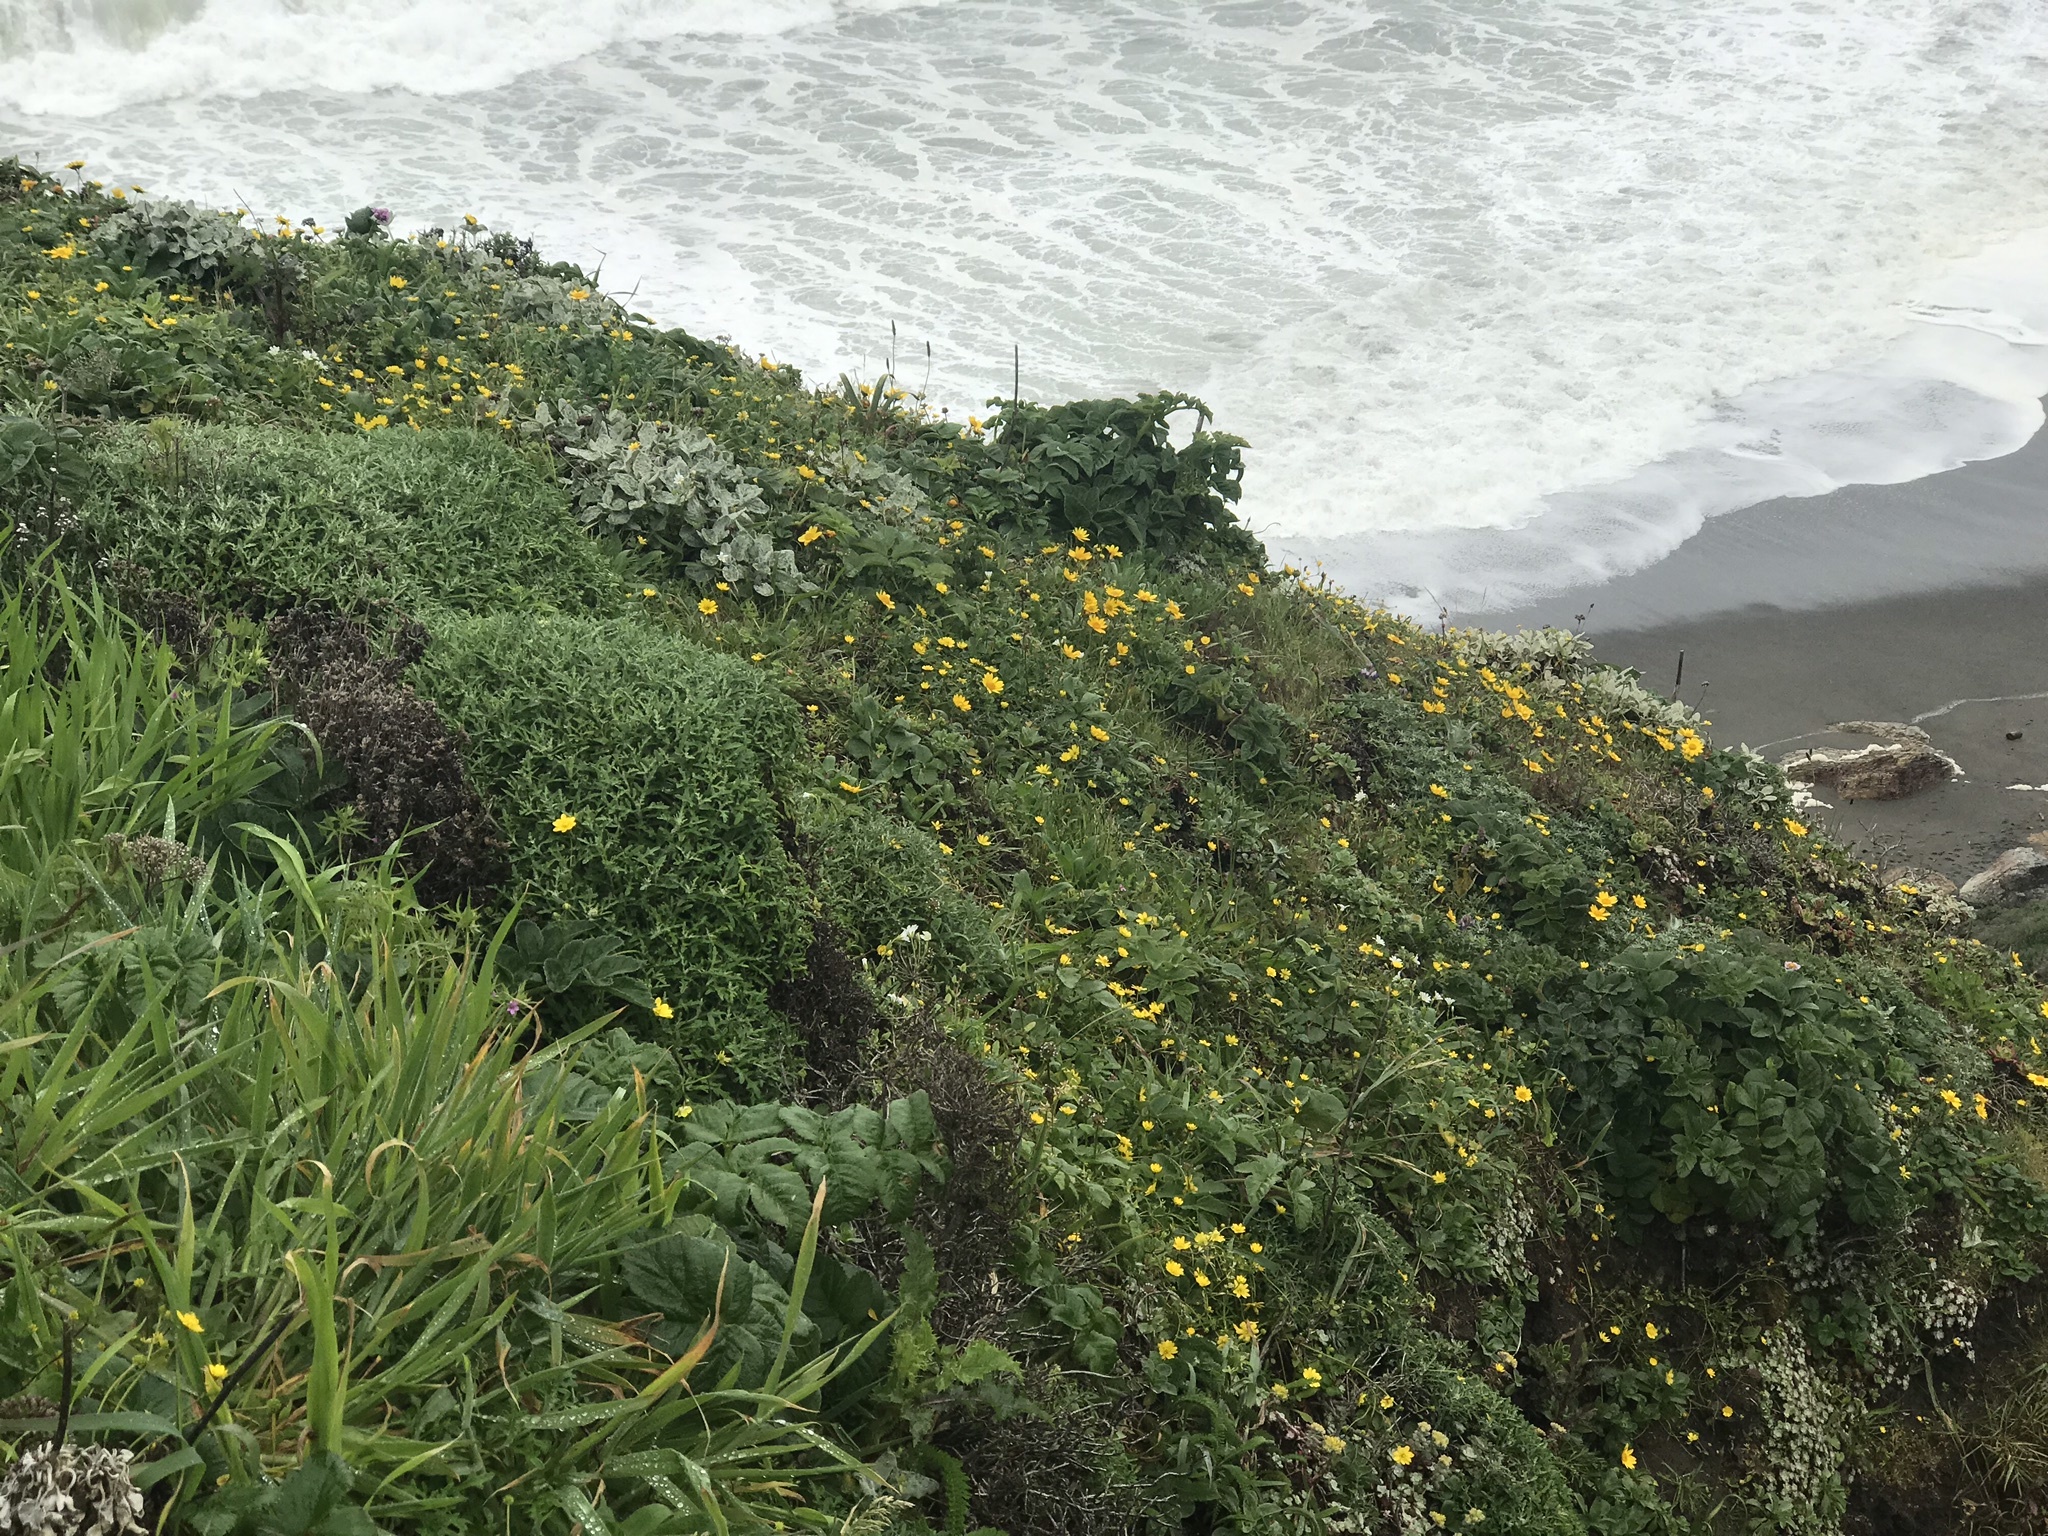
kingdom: Plantae
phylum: Tracheophyta
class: Magnoliopsida
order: Asterales
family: Asteraceae
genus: Lasthenia
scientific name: Lasthenia californica
